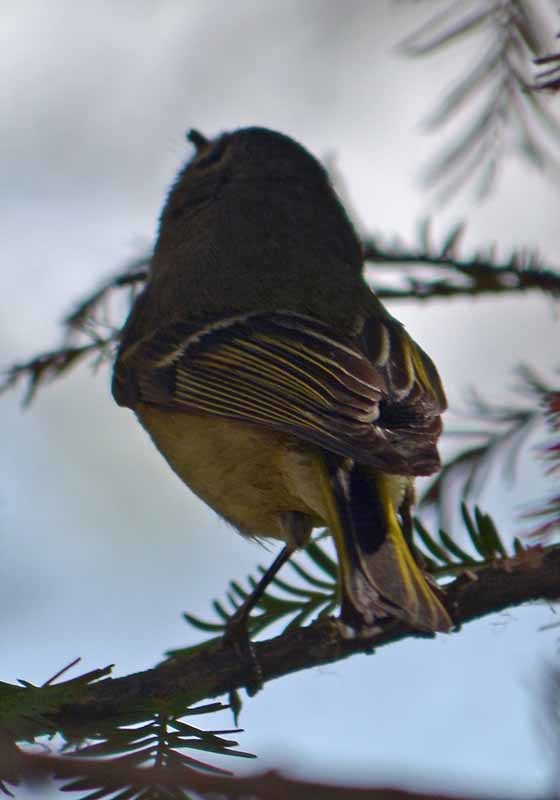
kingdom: Animalia
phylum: Chordata
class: Aves
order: Passeriformes
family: Regulidae
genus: Regulus
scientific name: Regulus calendula
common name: Ruby-crowned kinglet
